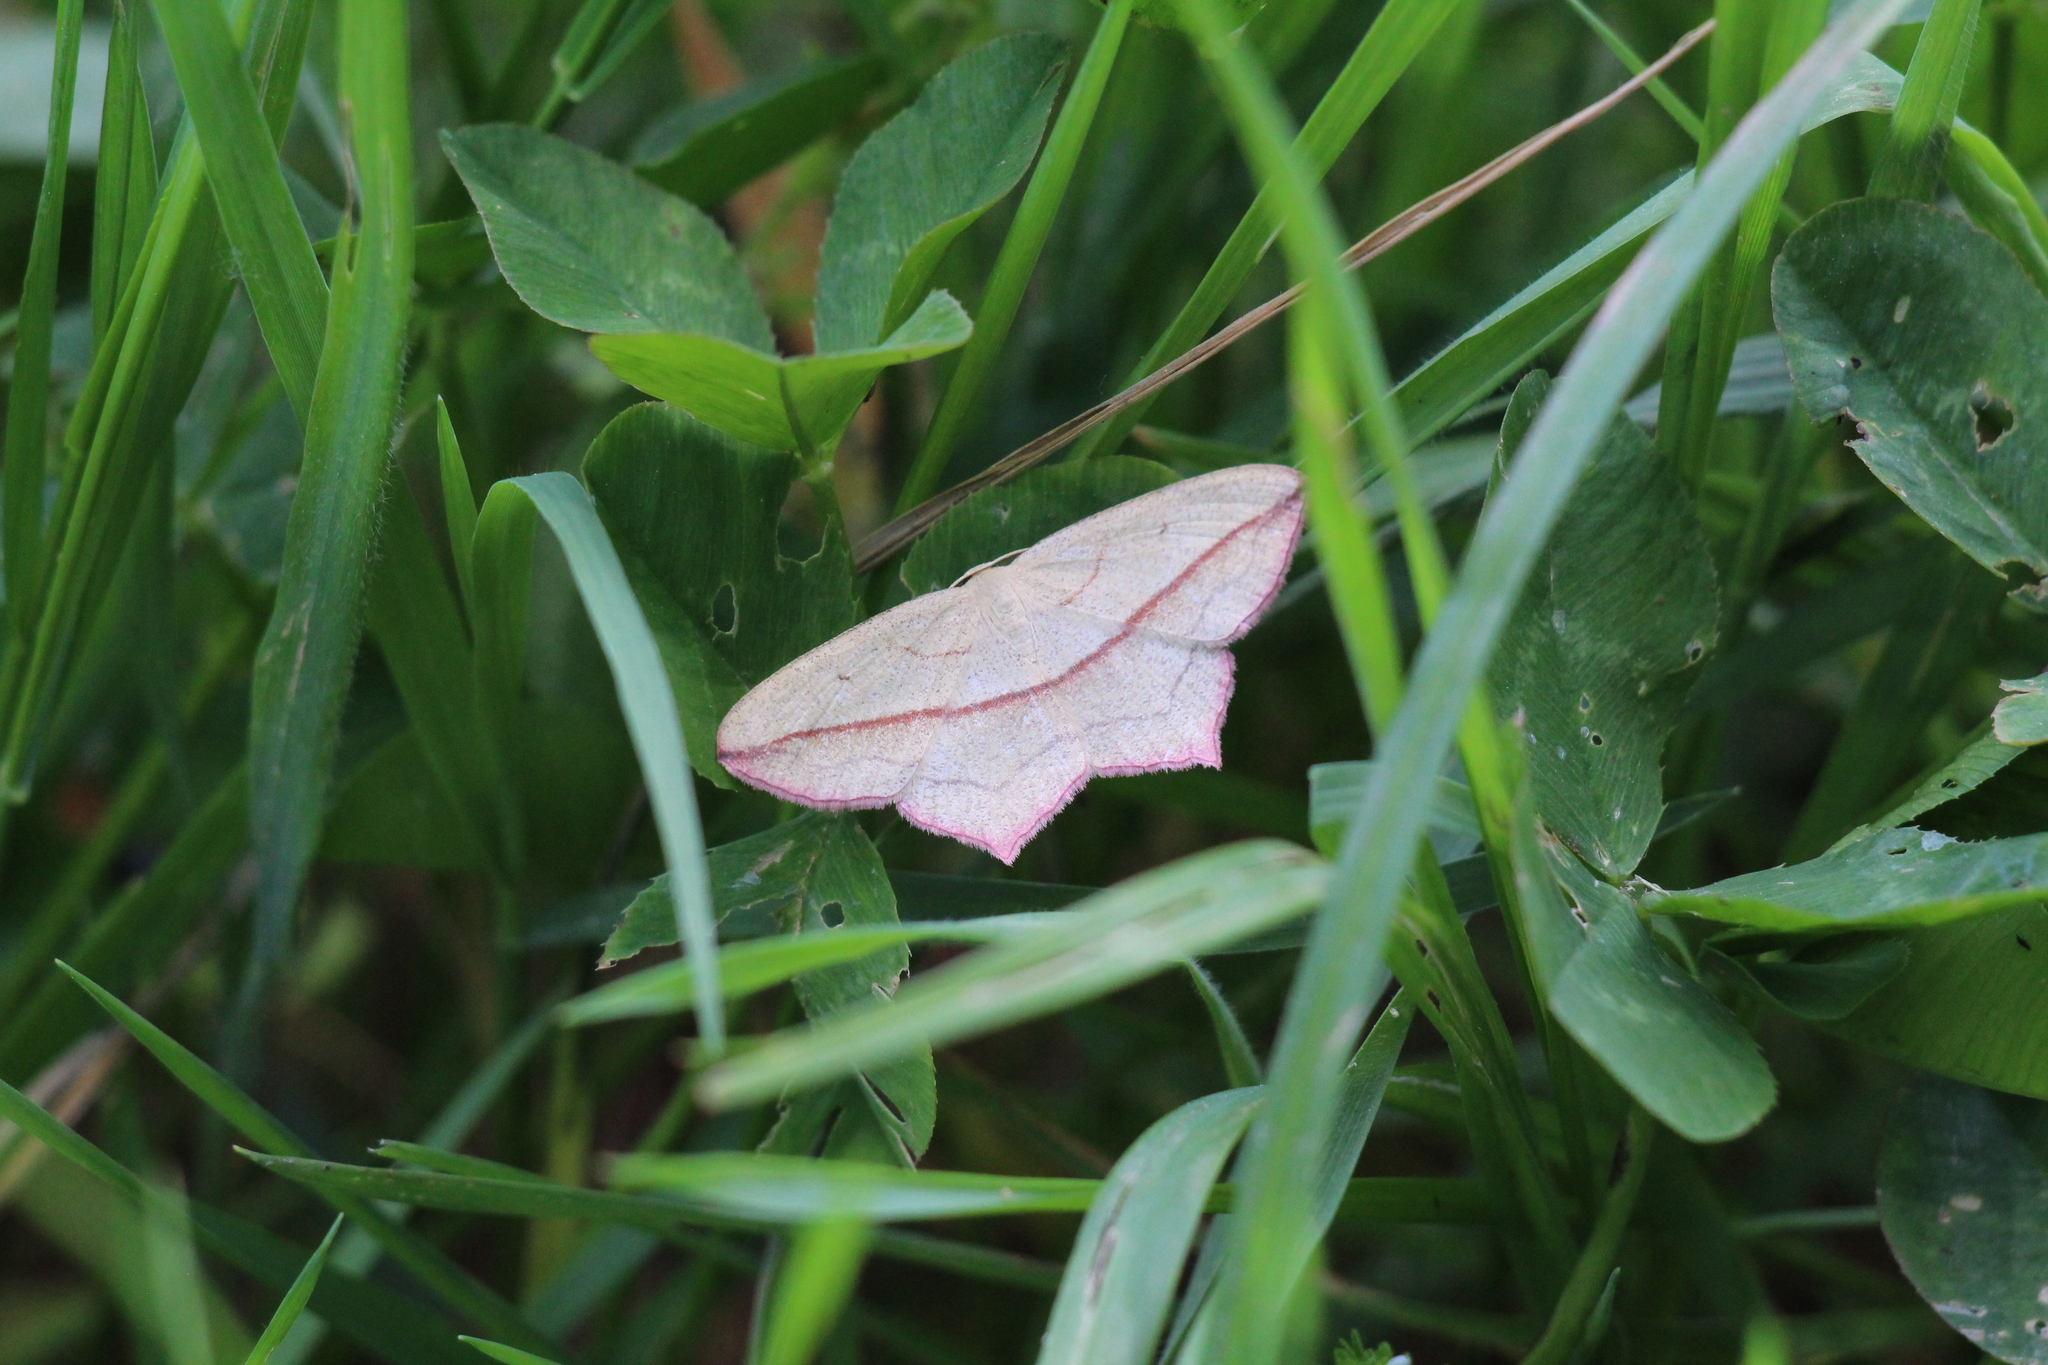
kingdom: Animalia
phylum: Arthropoda
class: Insecta
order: Lepidoptera
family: Geometridae
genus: Timandra
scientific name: Timandra comae
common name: Blood-vein
